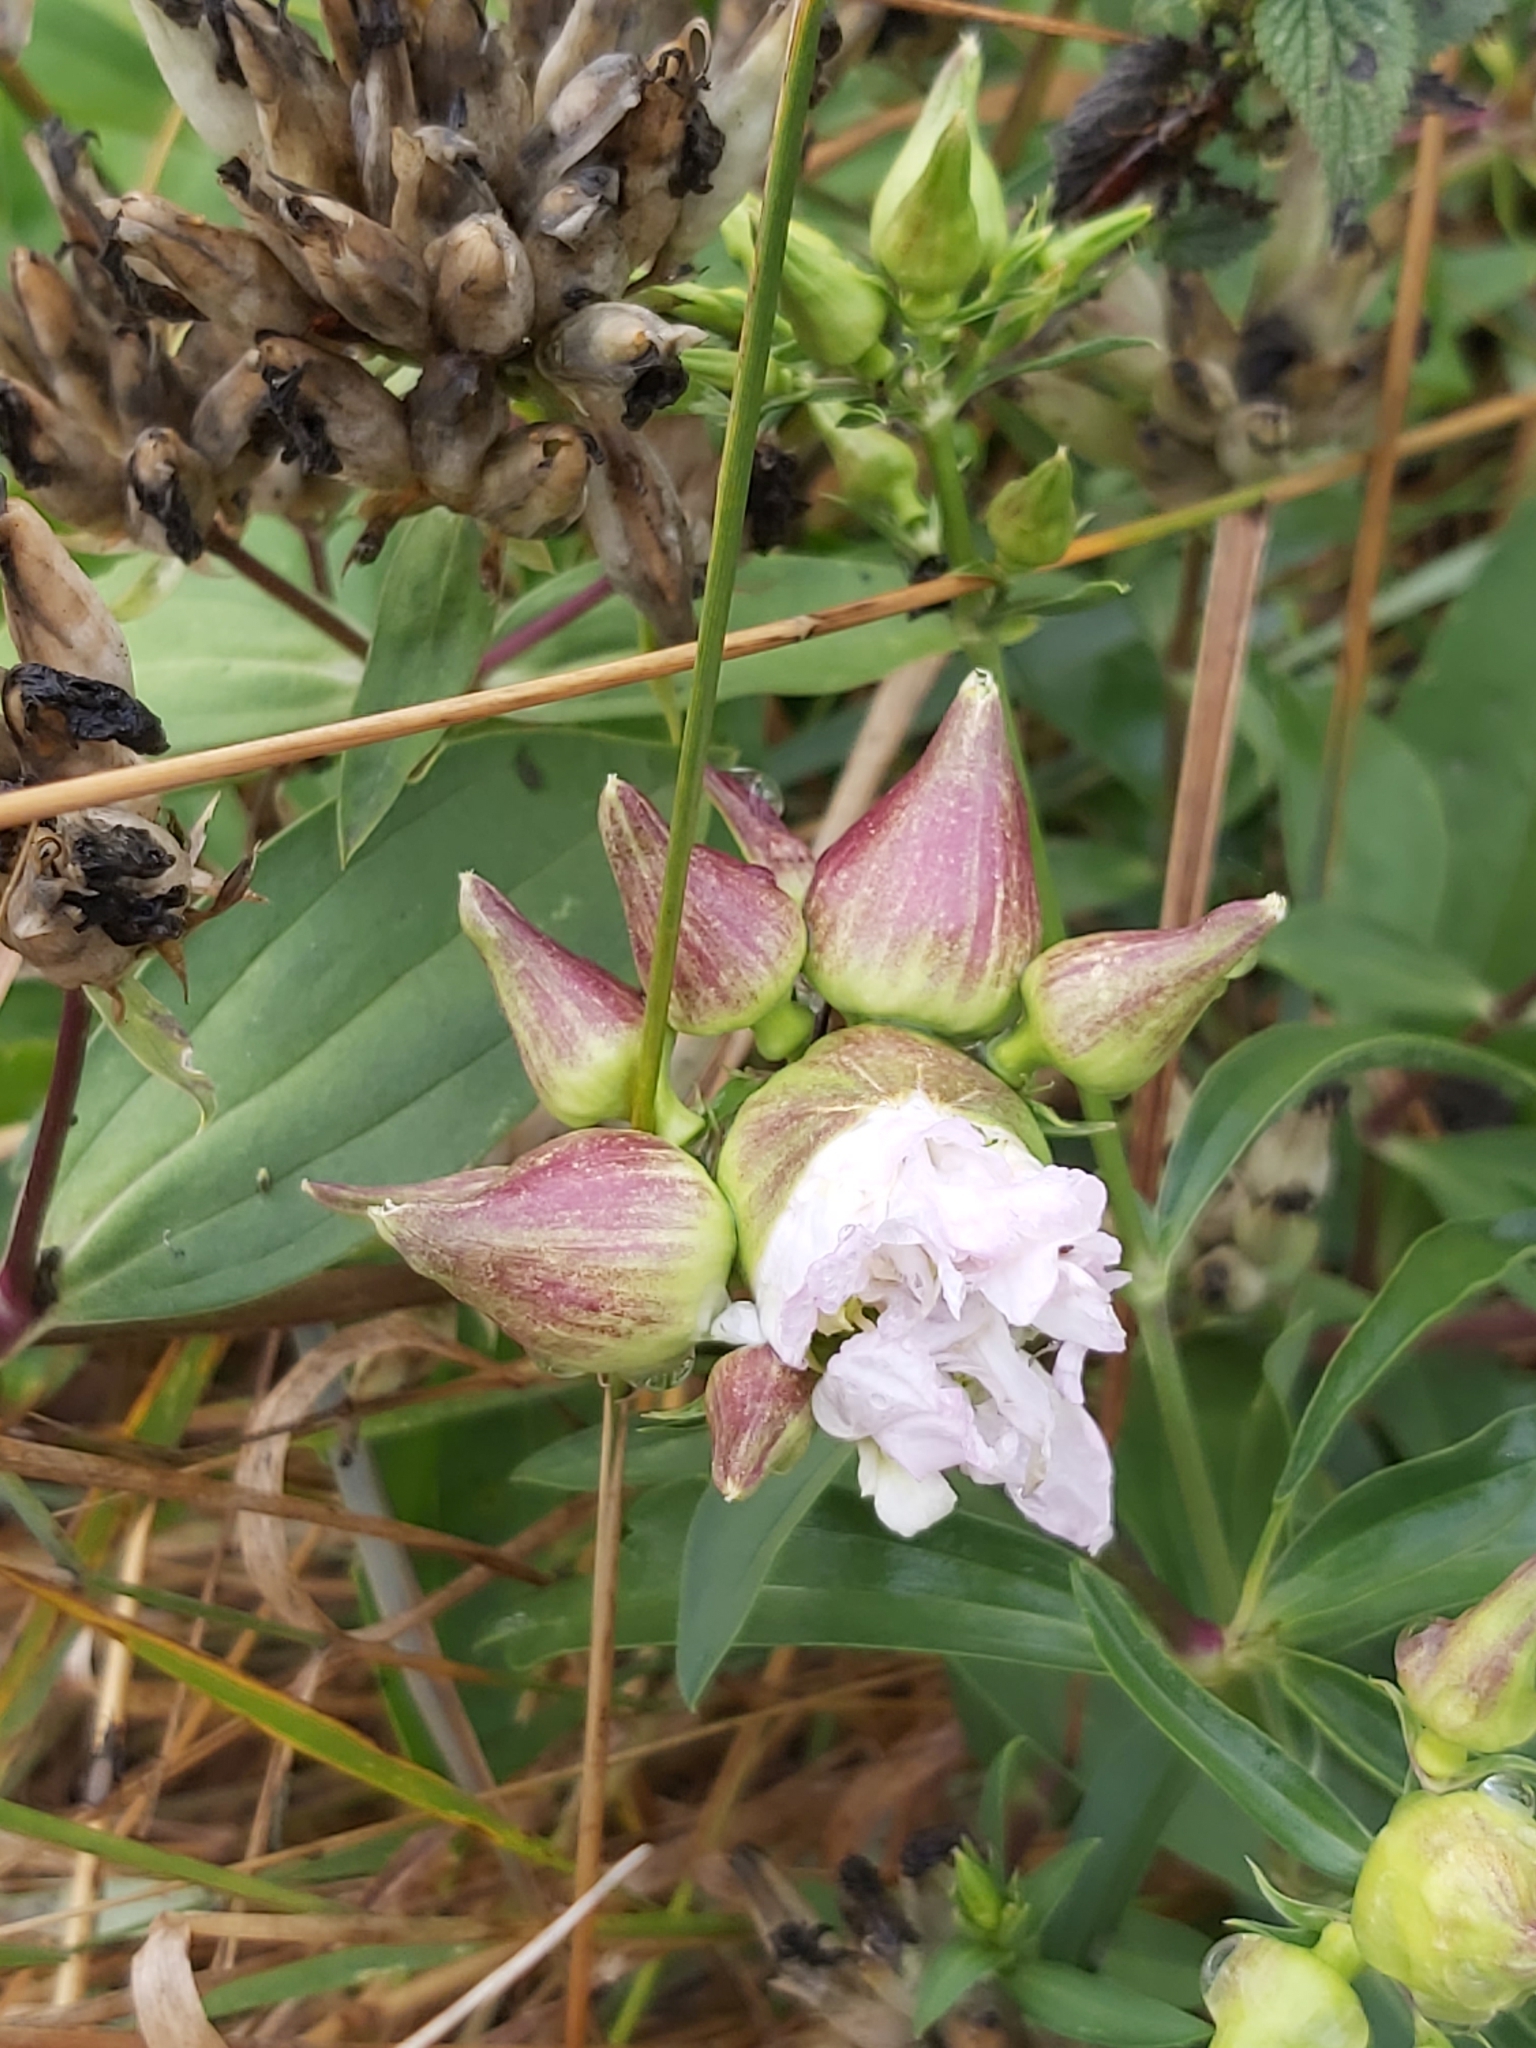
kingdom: Plantae
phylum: Tracheophyta
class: Magnoliopsida
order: Caryophyllales
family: Caryophyllaceae
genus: Saponaria
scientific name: Saponaria officinalis
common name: Soapwort
